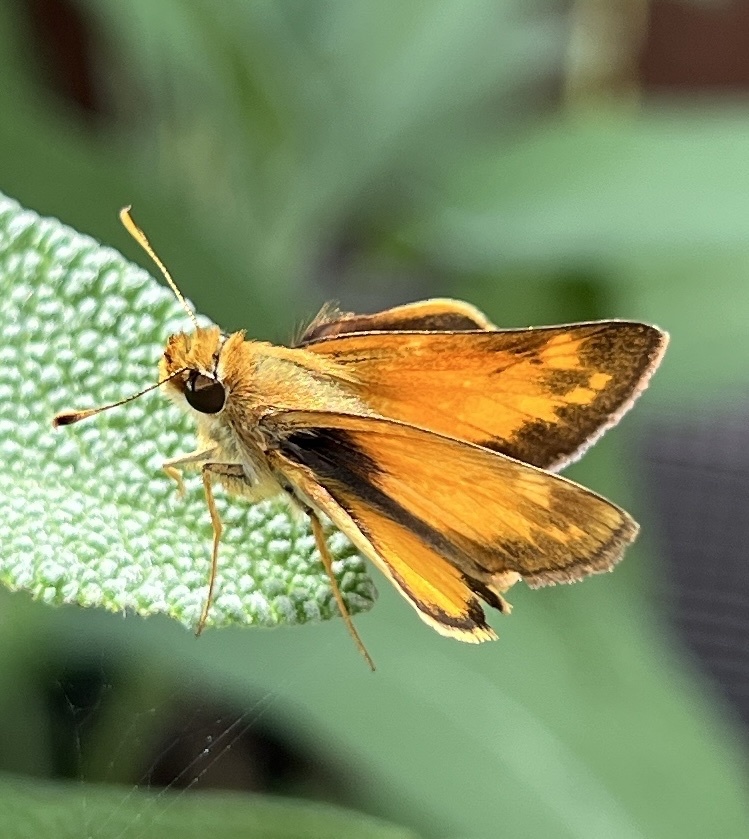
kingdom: Animalia
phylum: Arthropoda
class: Insecta
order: Lepidoptera
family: Hesperiidae
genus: Lon
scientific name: Lon zabulon
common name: Zabulon skipper
